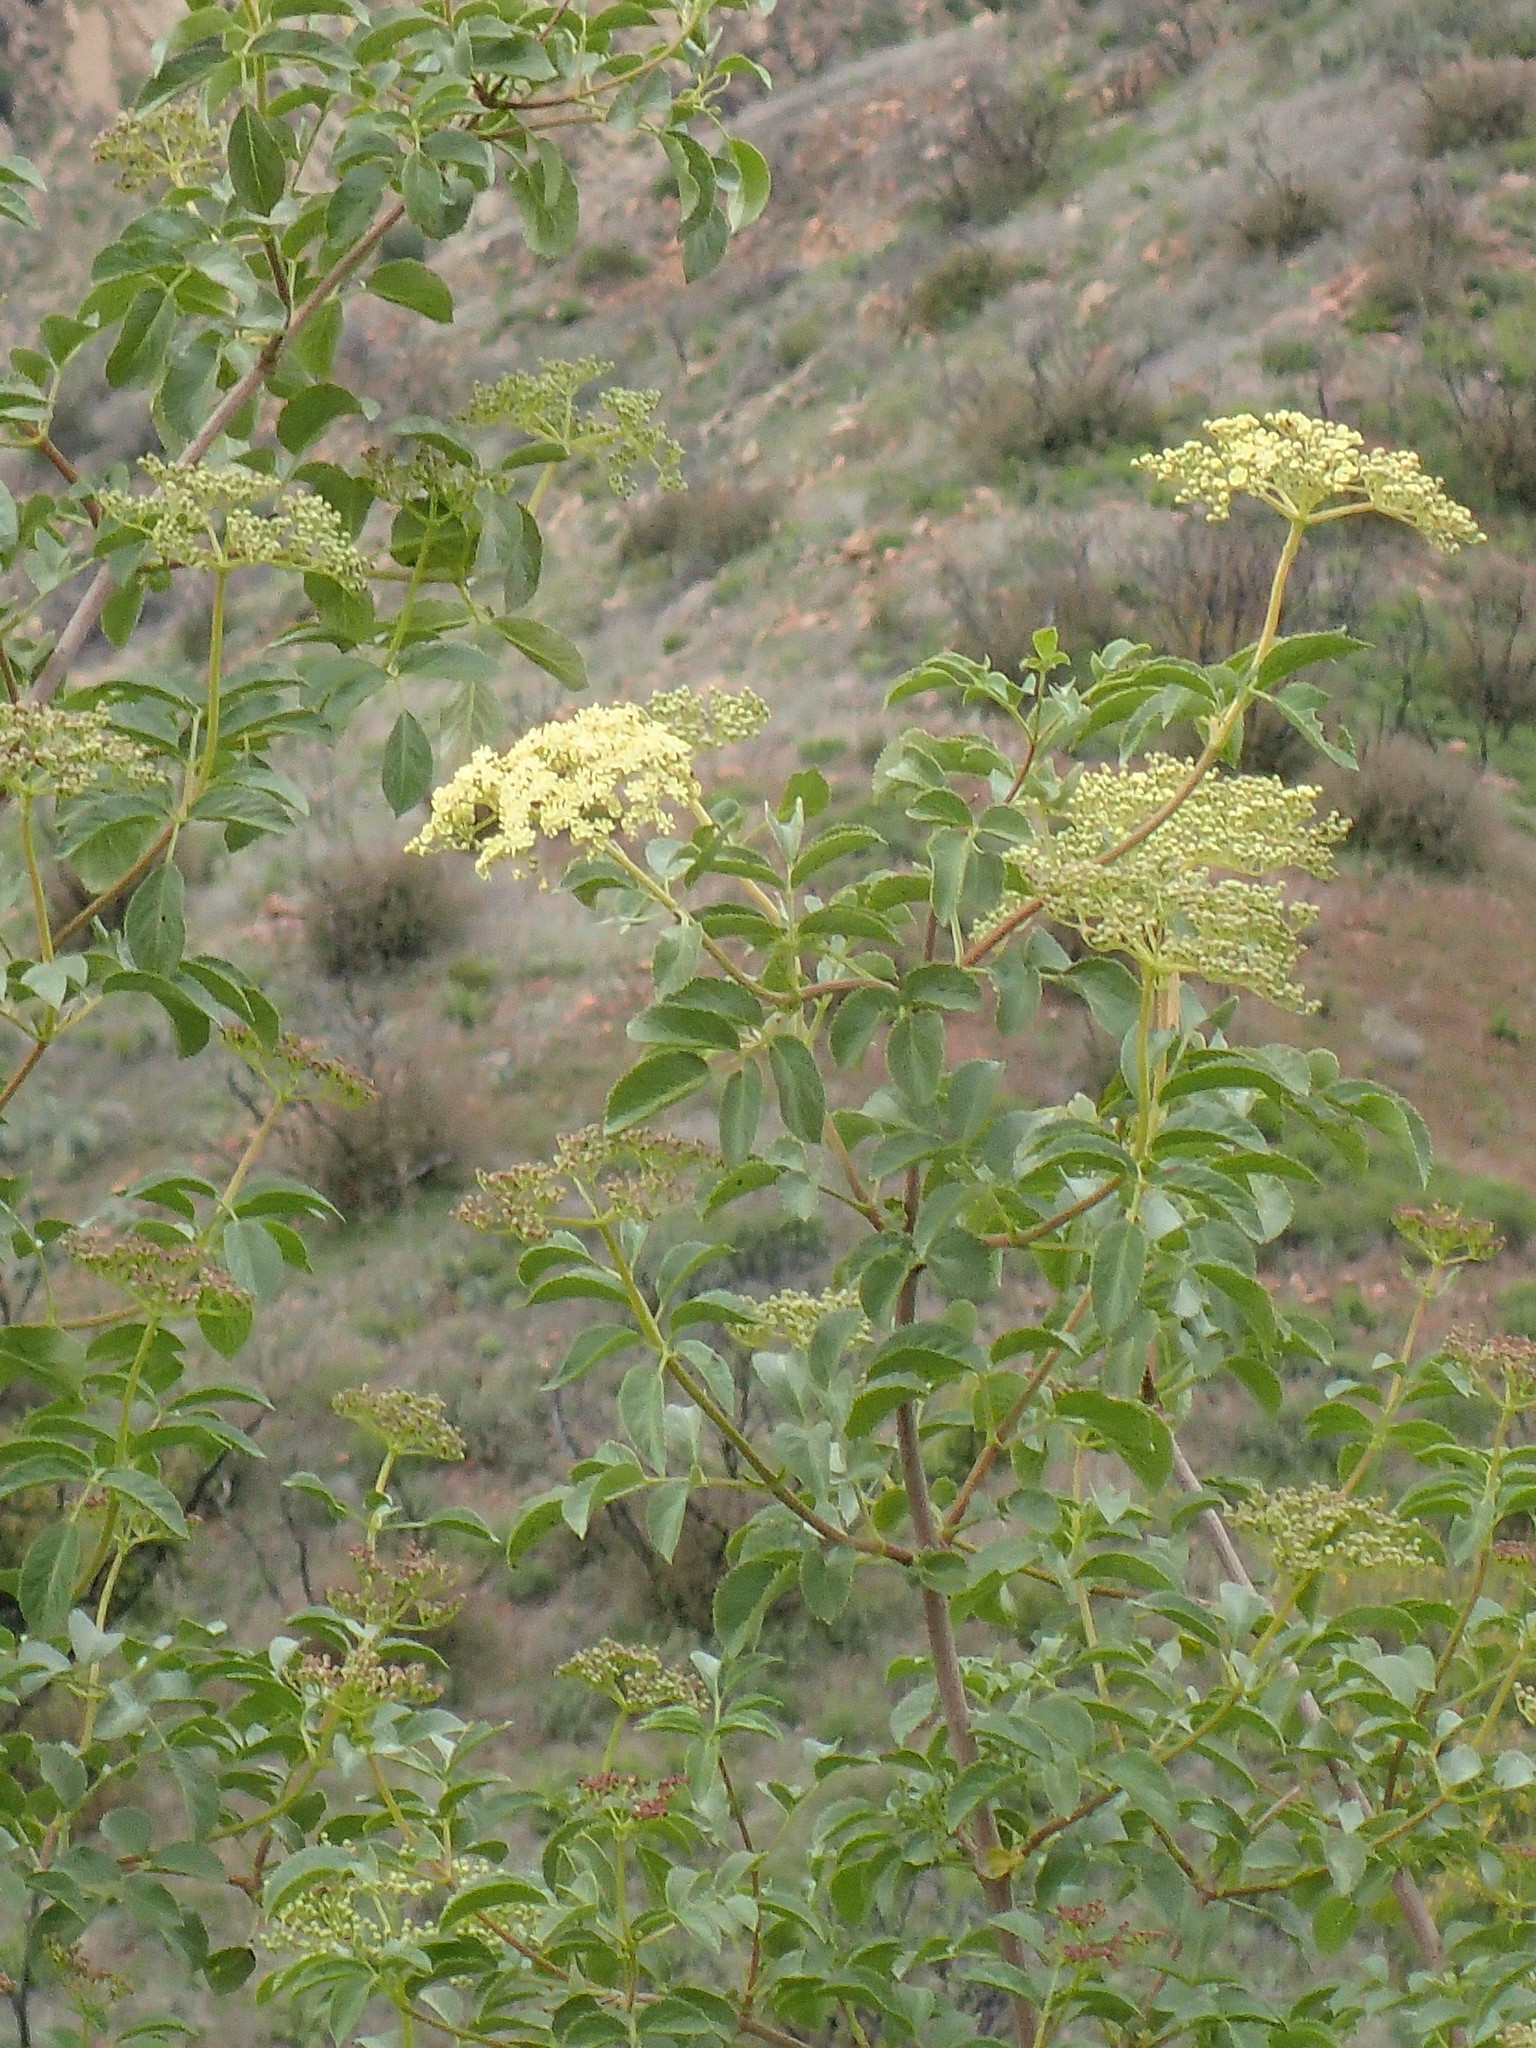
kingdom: Plantae
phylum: Tracheophyta
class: Magnoliopsida
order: Dipsacales
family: Viburnaceae
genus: Sambucus
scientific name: Sambucus cerulea
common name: Blue elder
